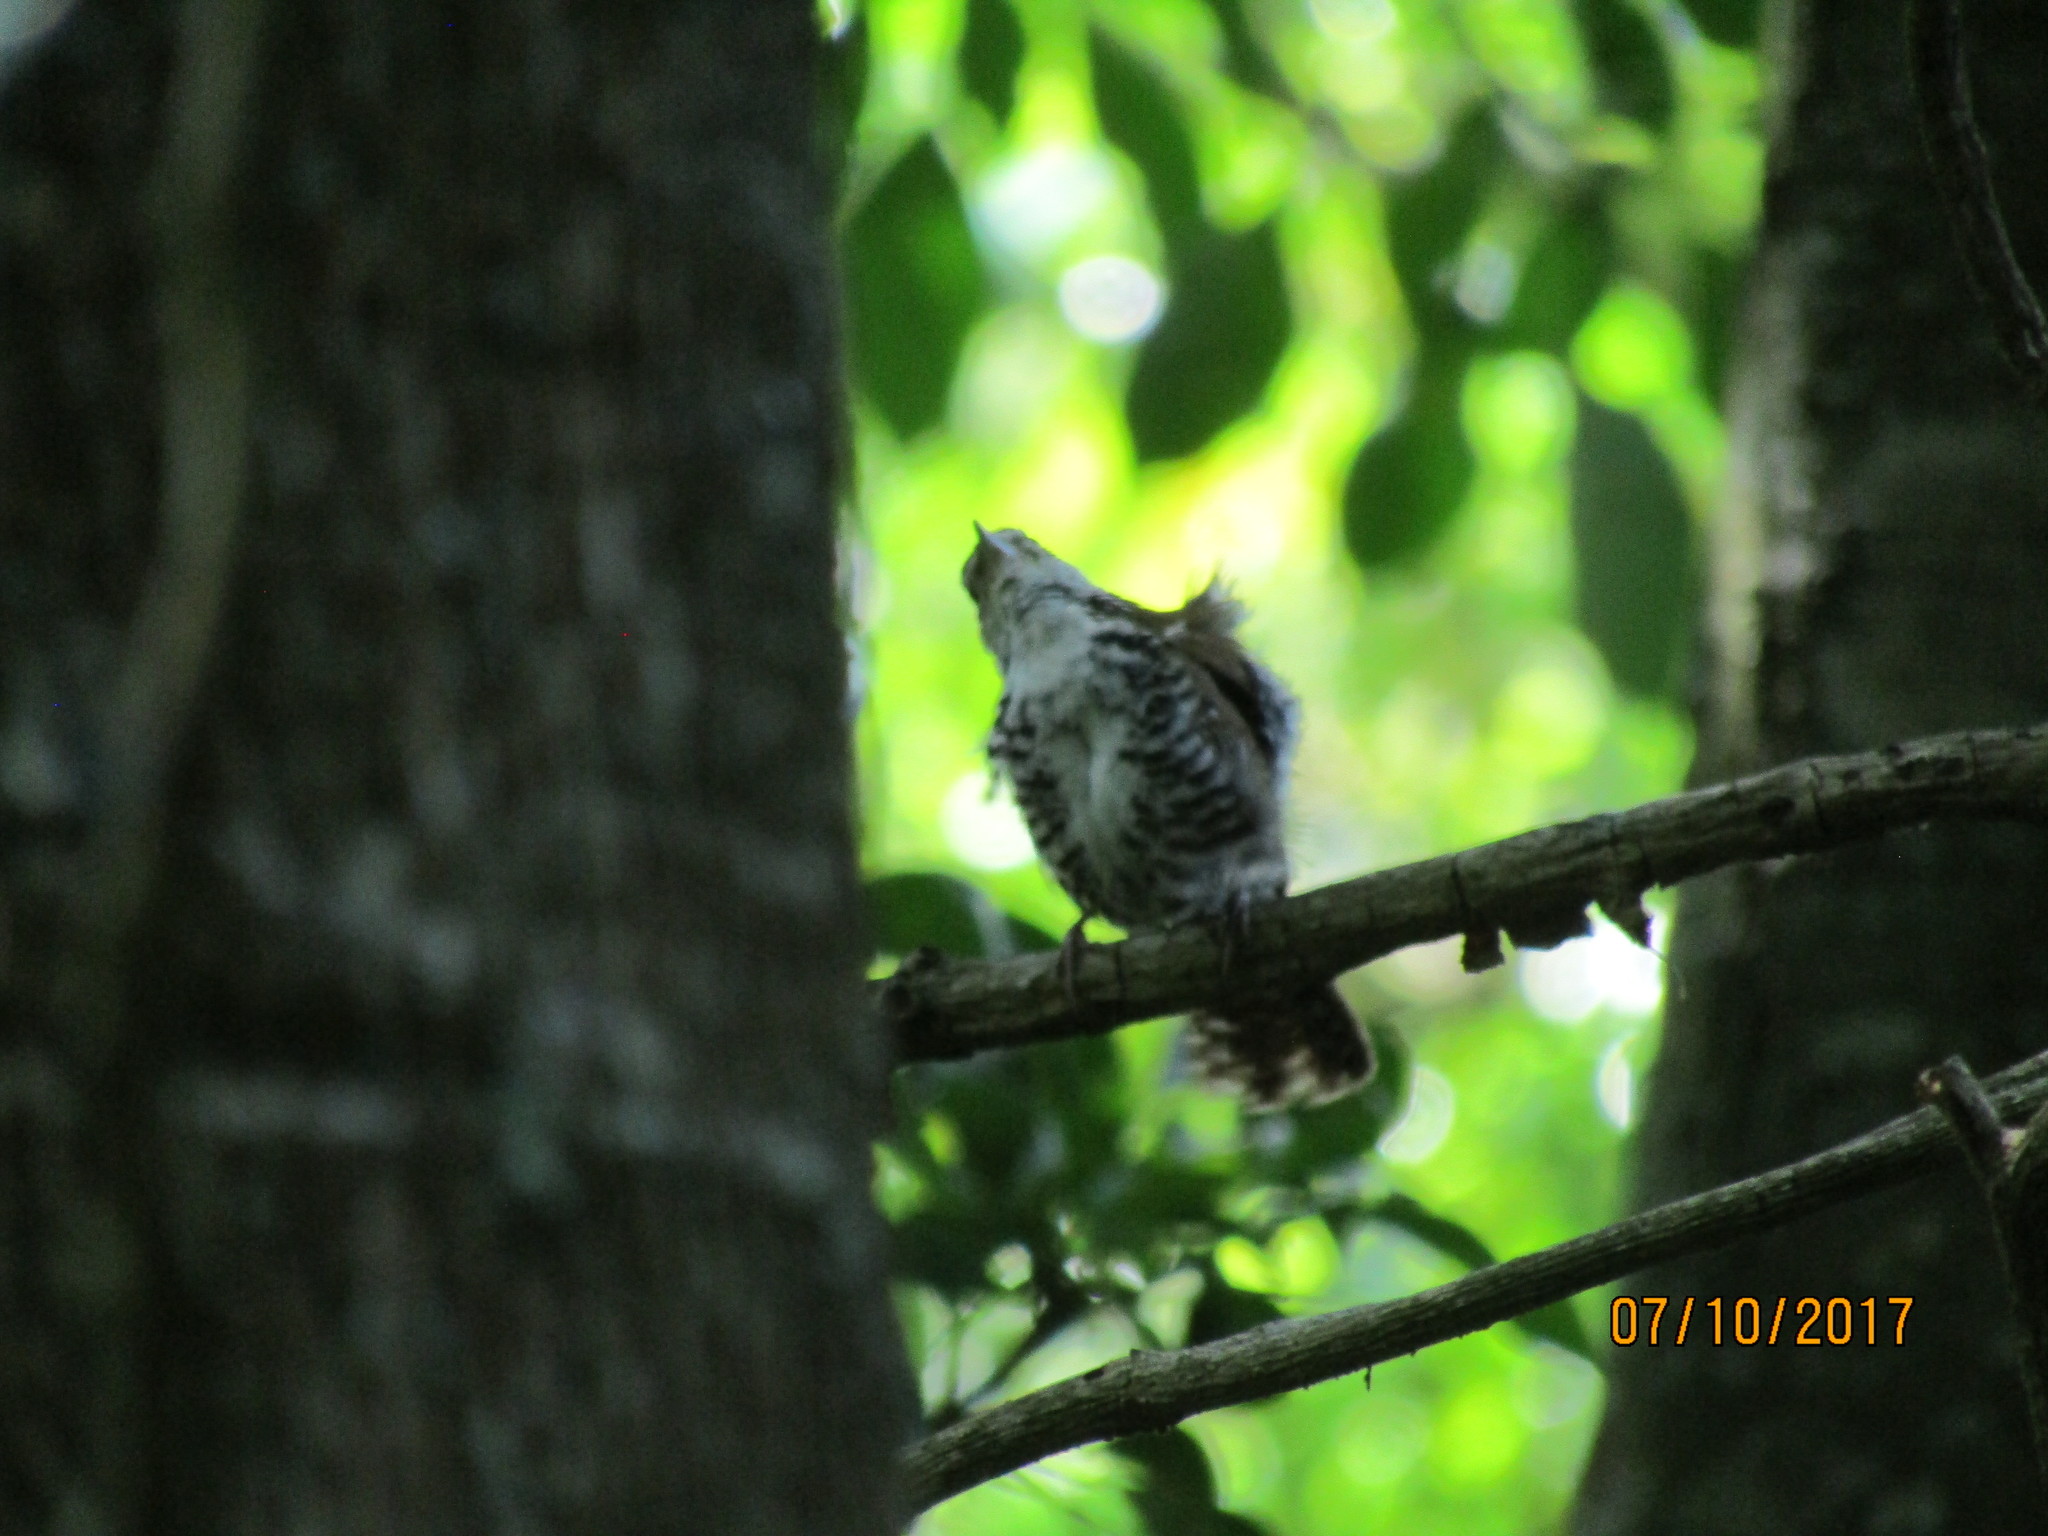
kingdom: Animalia
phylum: Chordata
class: Aves
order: Passeriformes
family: Troglodytidae
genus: Thryophilus
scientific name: Thryophilus pleurostictus
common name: Banded wren
